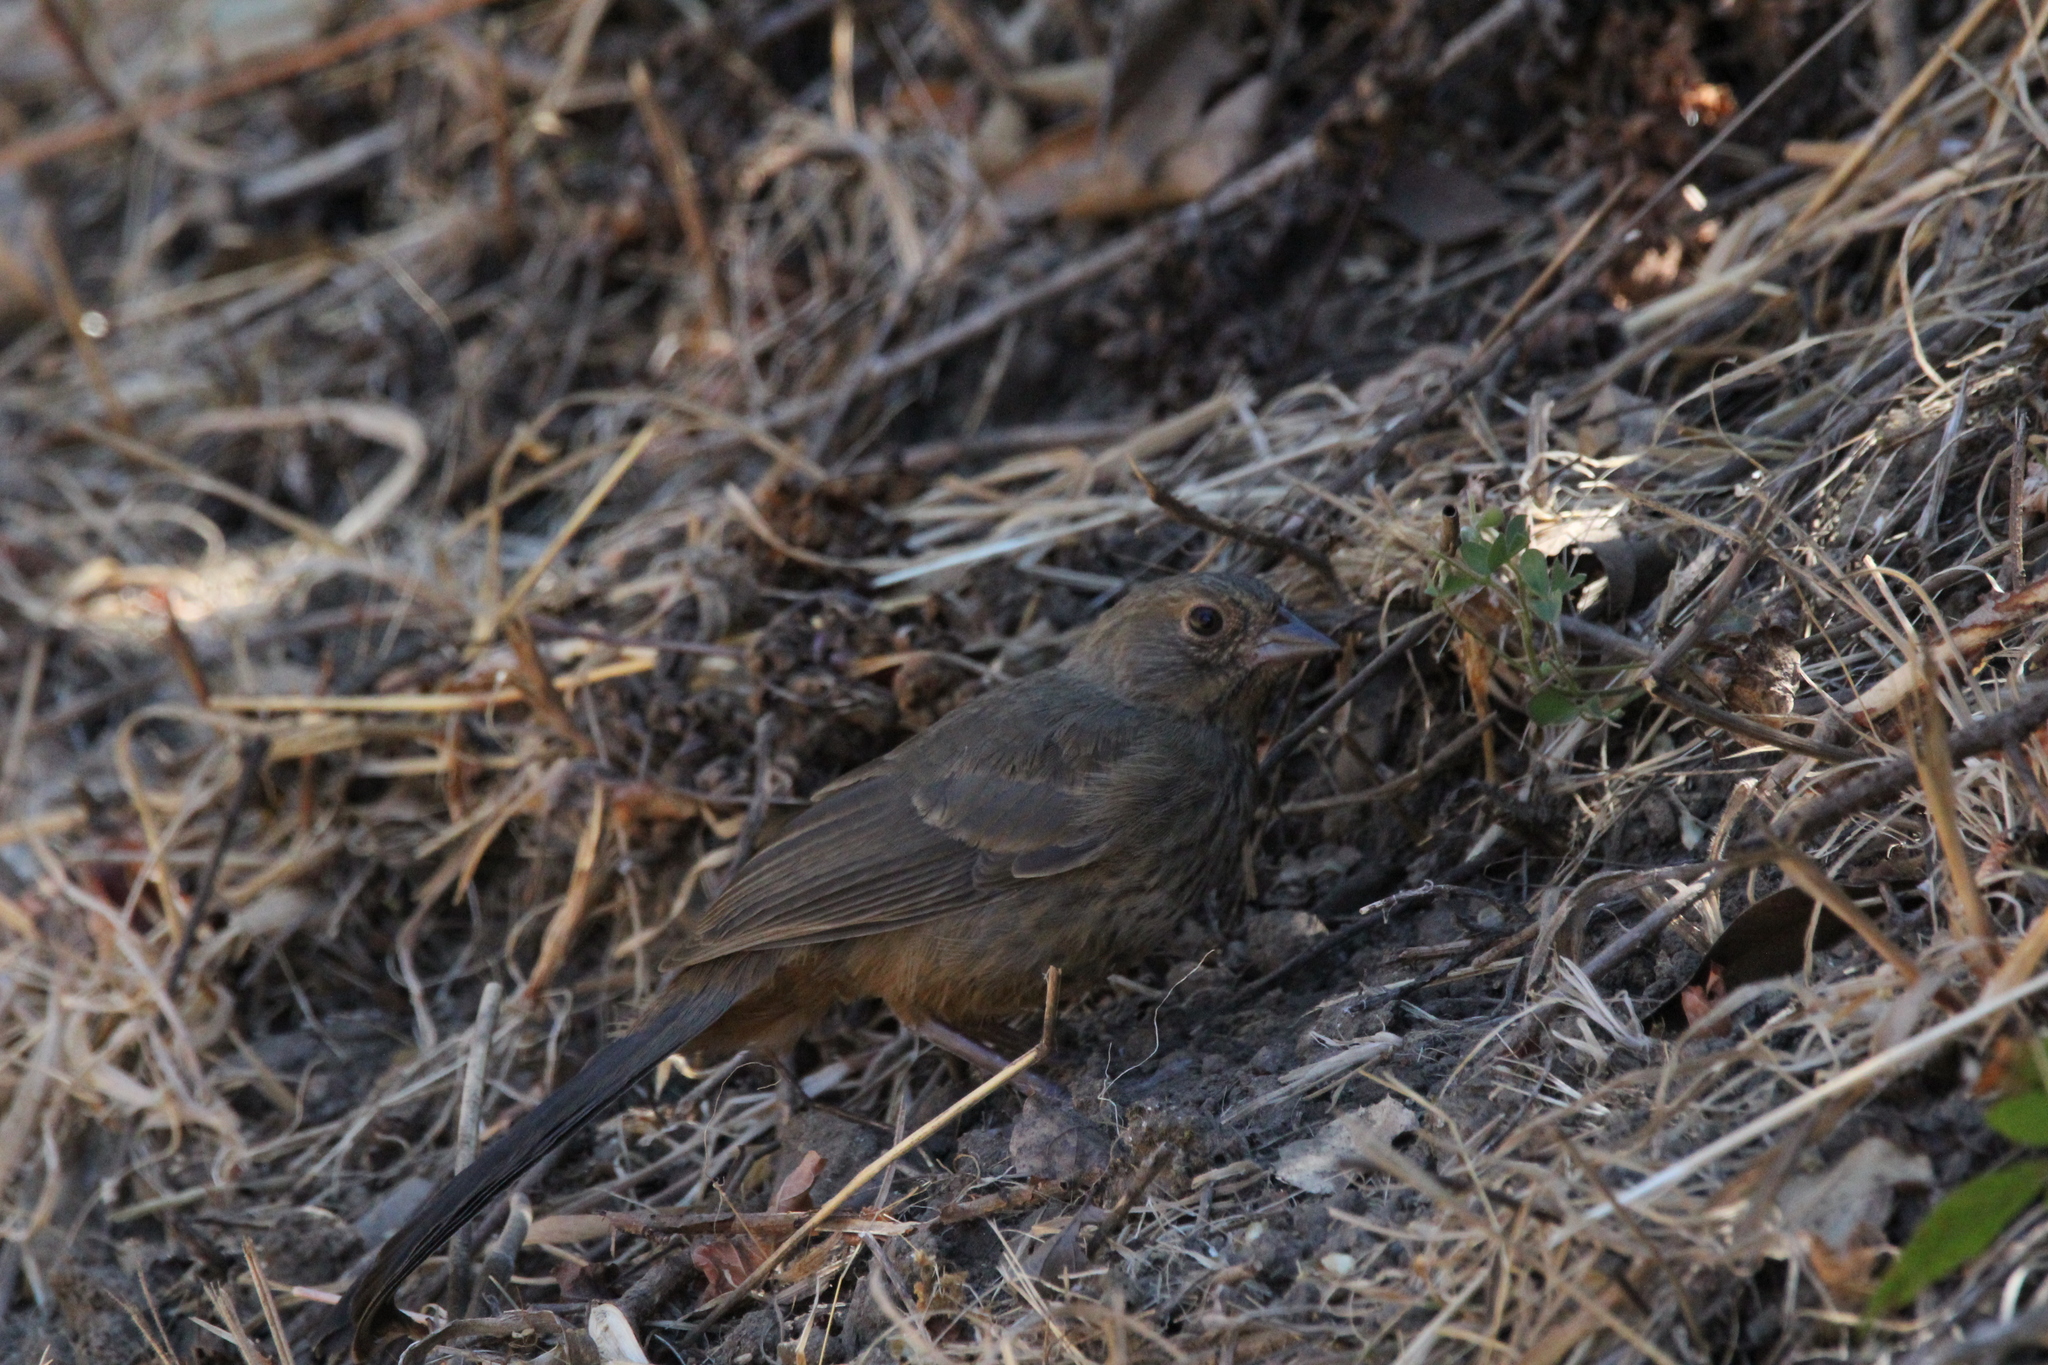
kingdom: Animalia
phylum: Chordata
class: Aves
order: Passeriformes
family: Passerellidae
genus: Melozone
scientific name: Melozone crissalis
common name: California towhee
